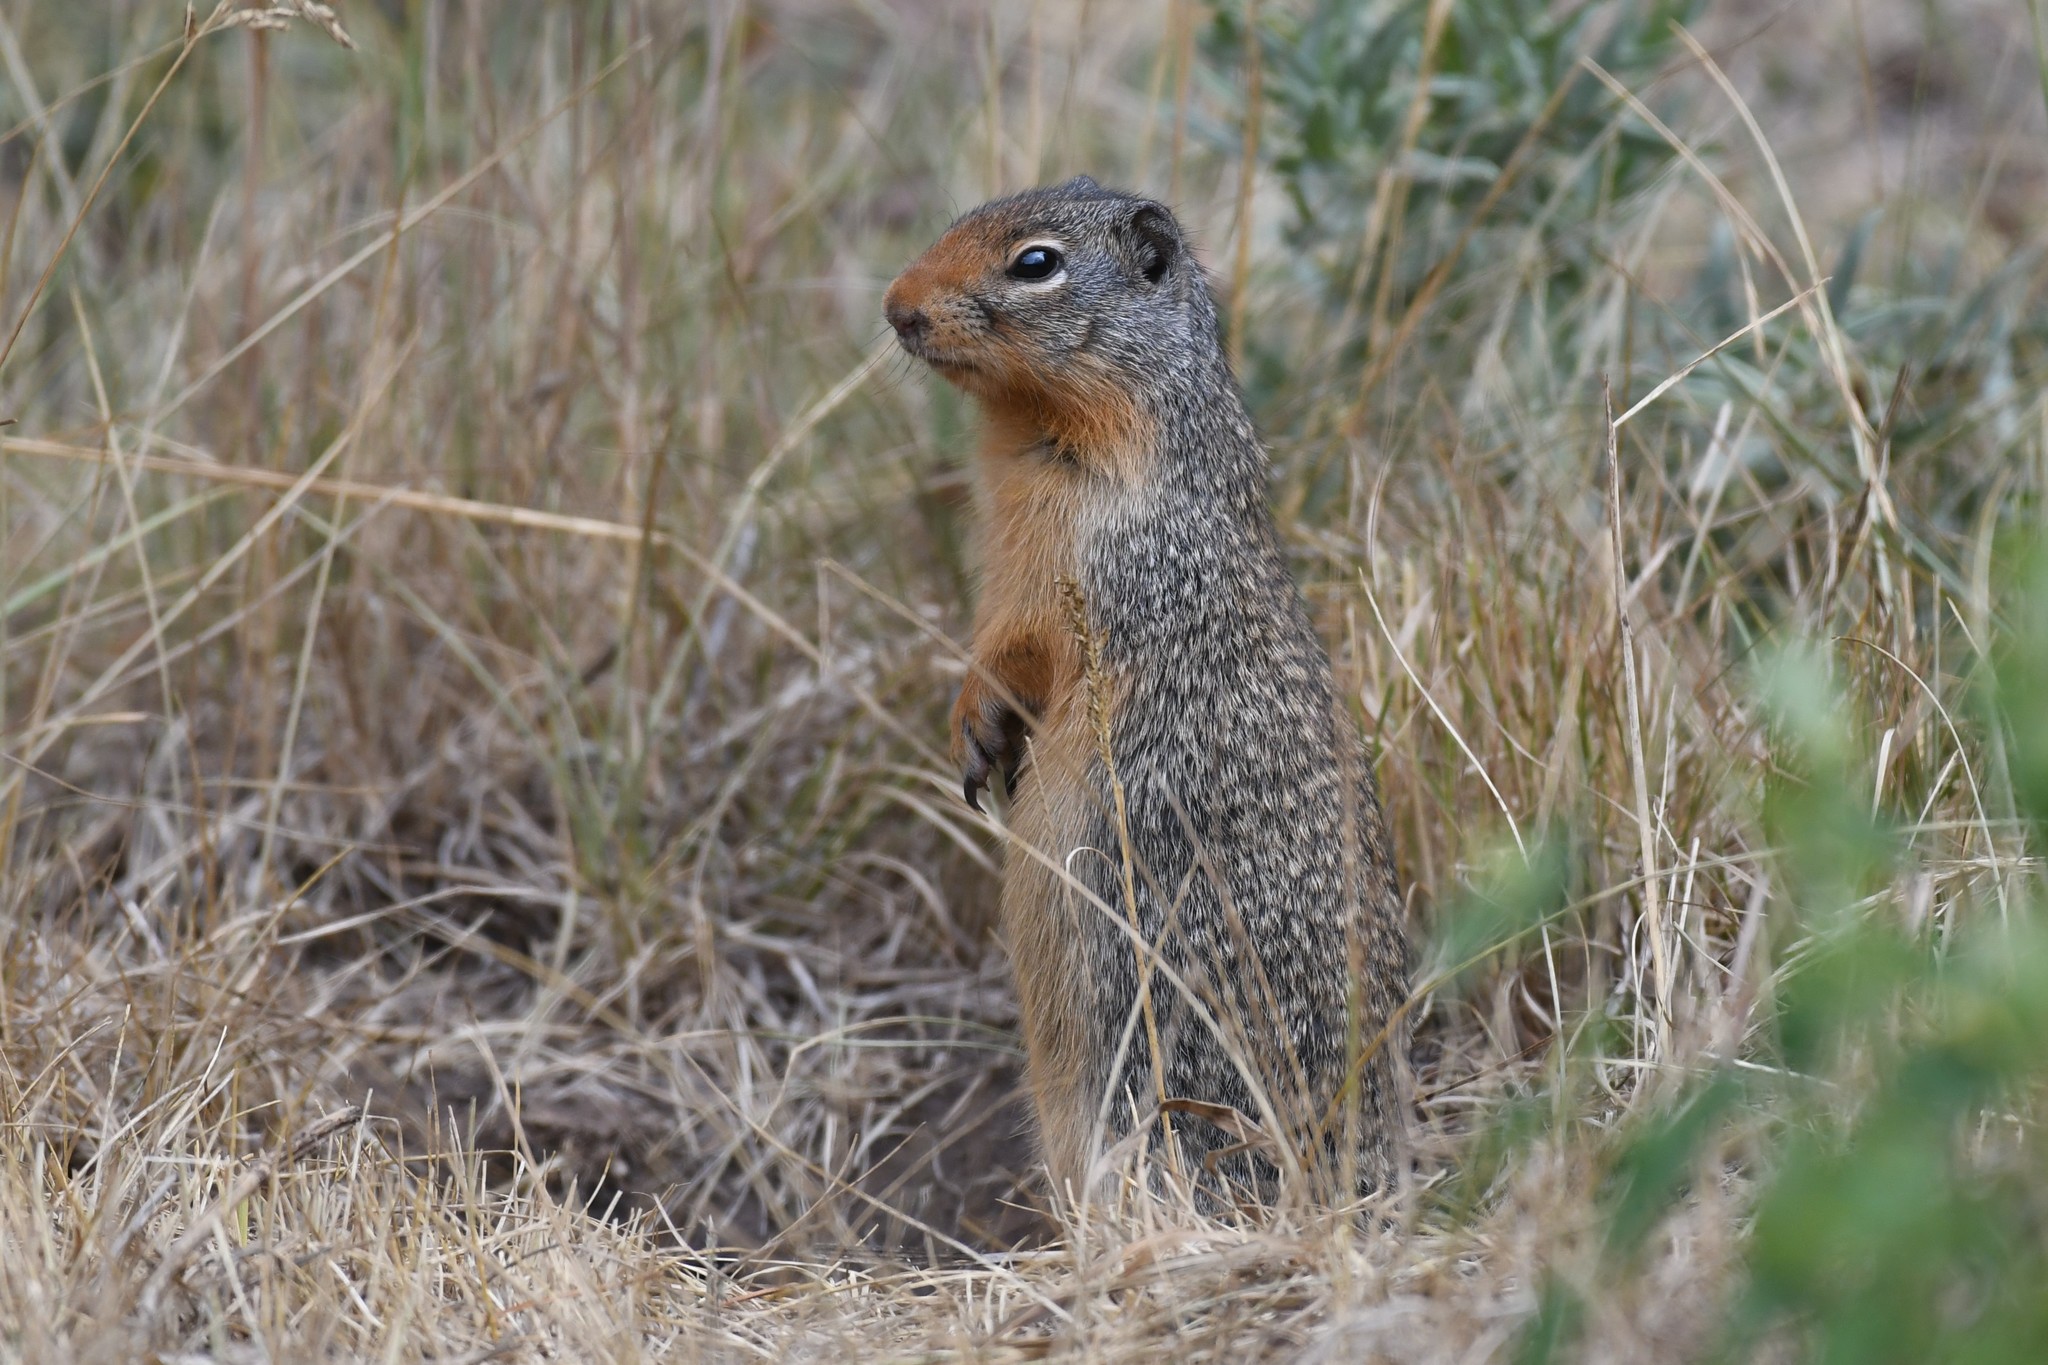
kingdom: Animalia
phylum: Chordata
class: Mammalia
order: Rodentia
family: Sciuridae
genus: Urocitellus
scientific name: Urocitellus columbianus
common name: Columbian ground squirrel
